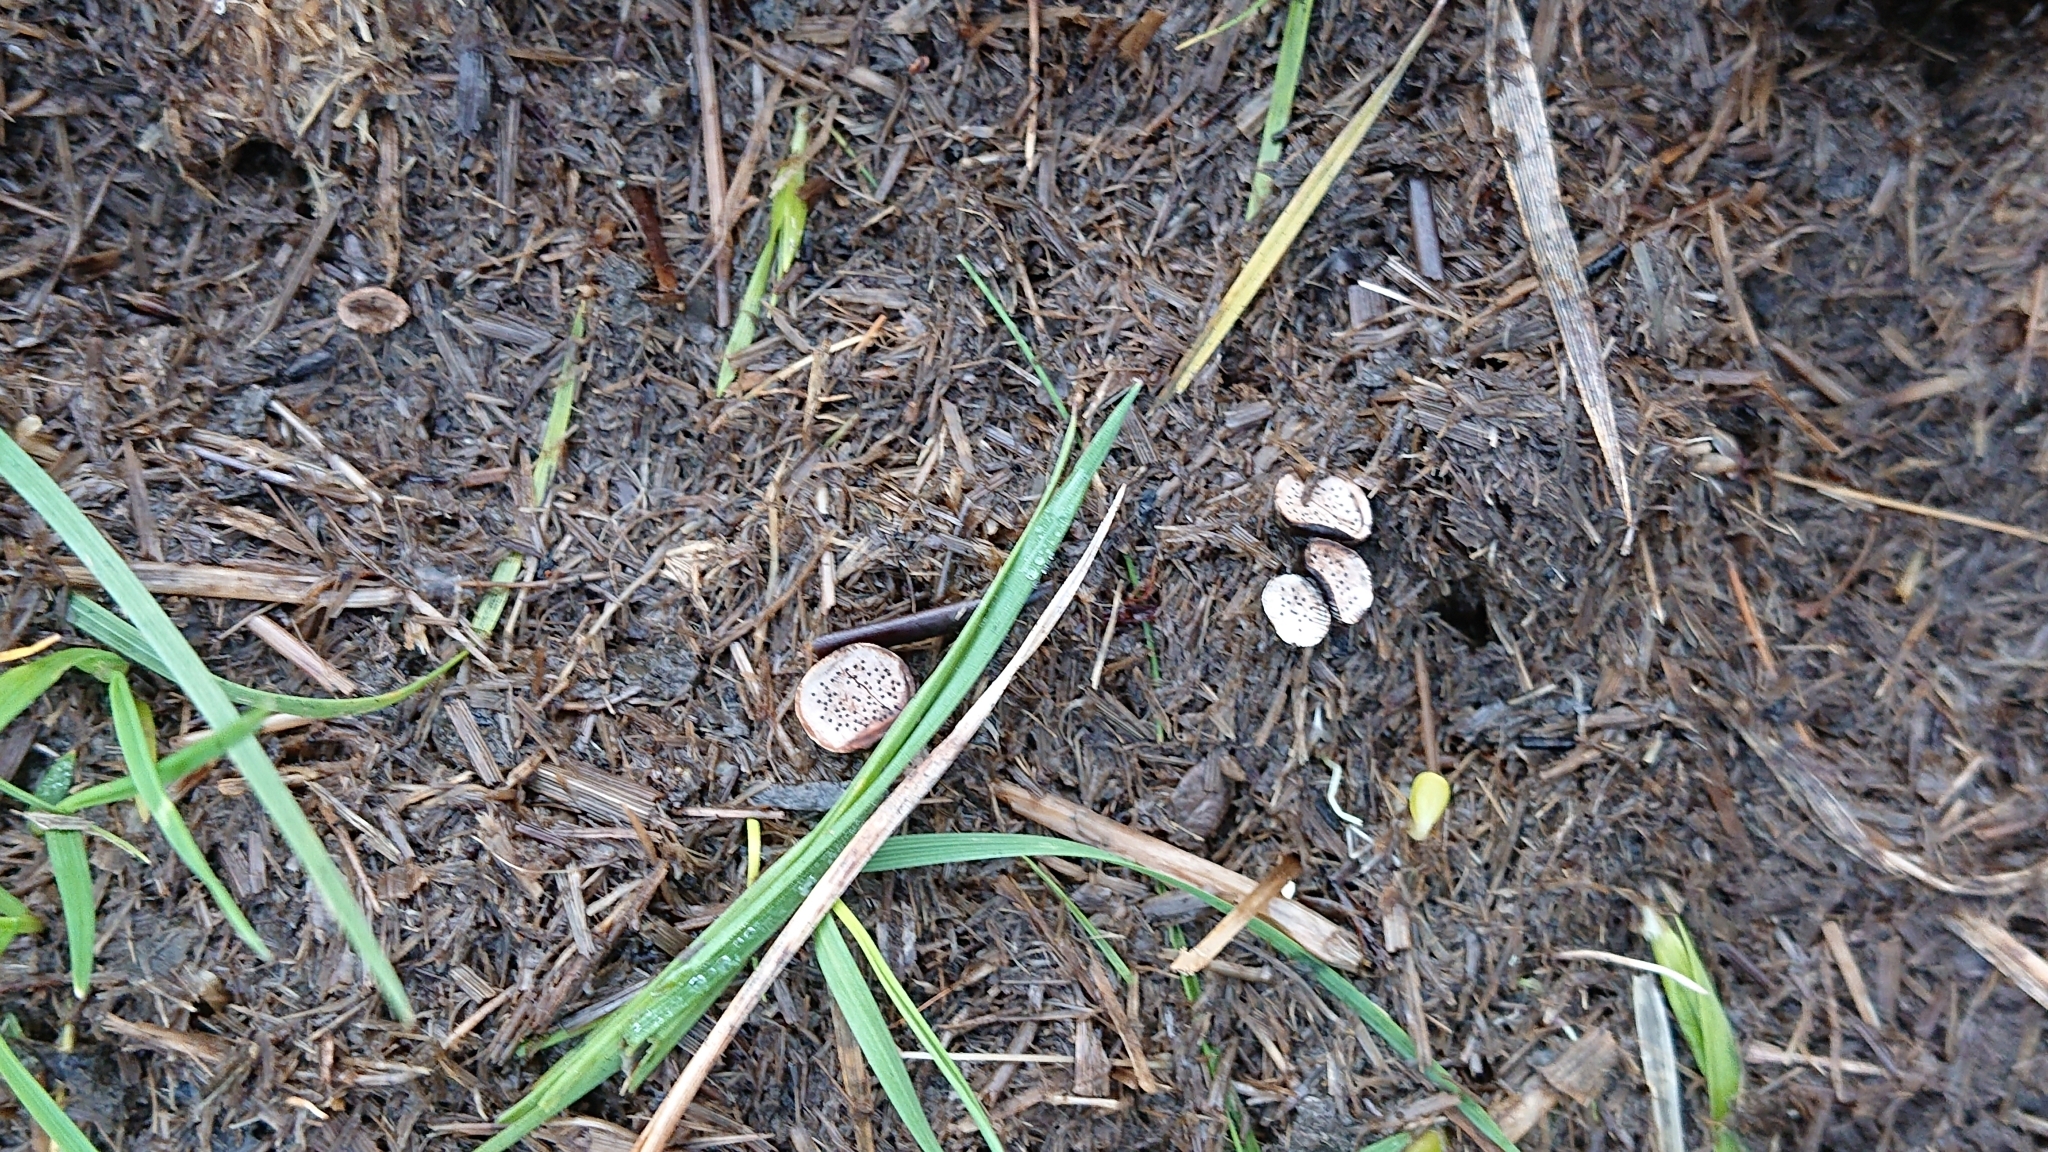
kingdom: Fungi
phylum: Ascomycota
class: Sordariomycetes
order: Xylariales
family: Xylariaceae
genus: Poronia
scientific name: Poronia punctata
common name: Nail fungus
